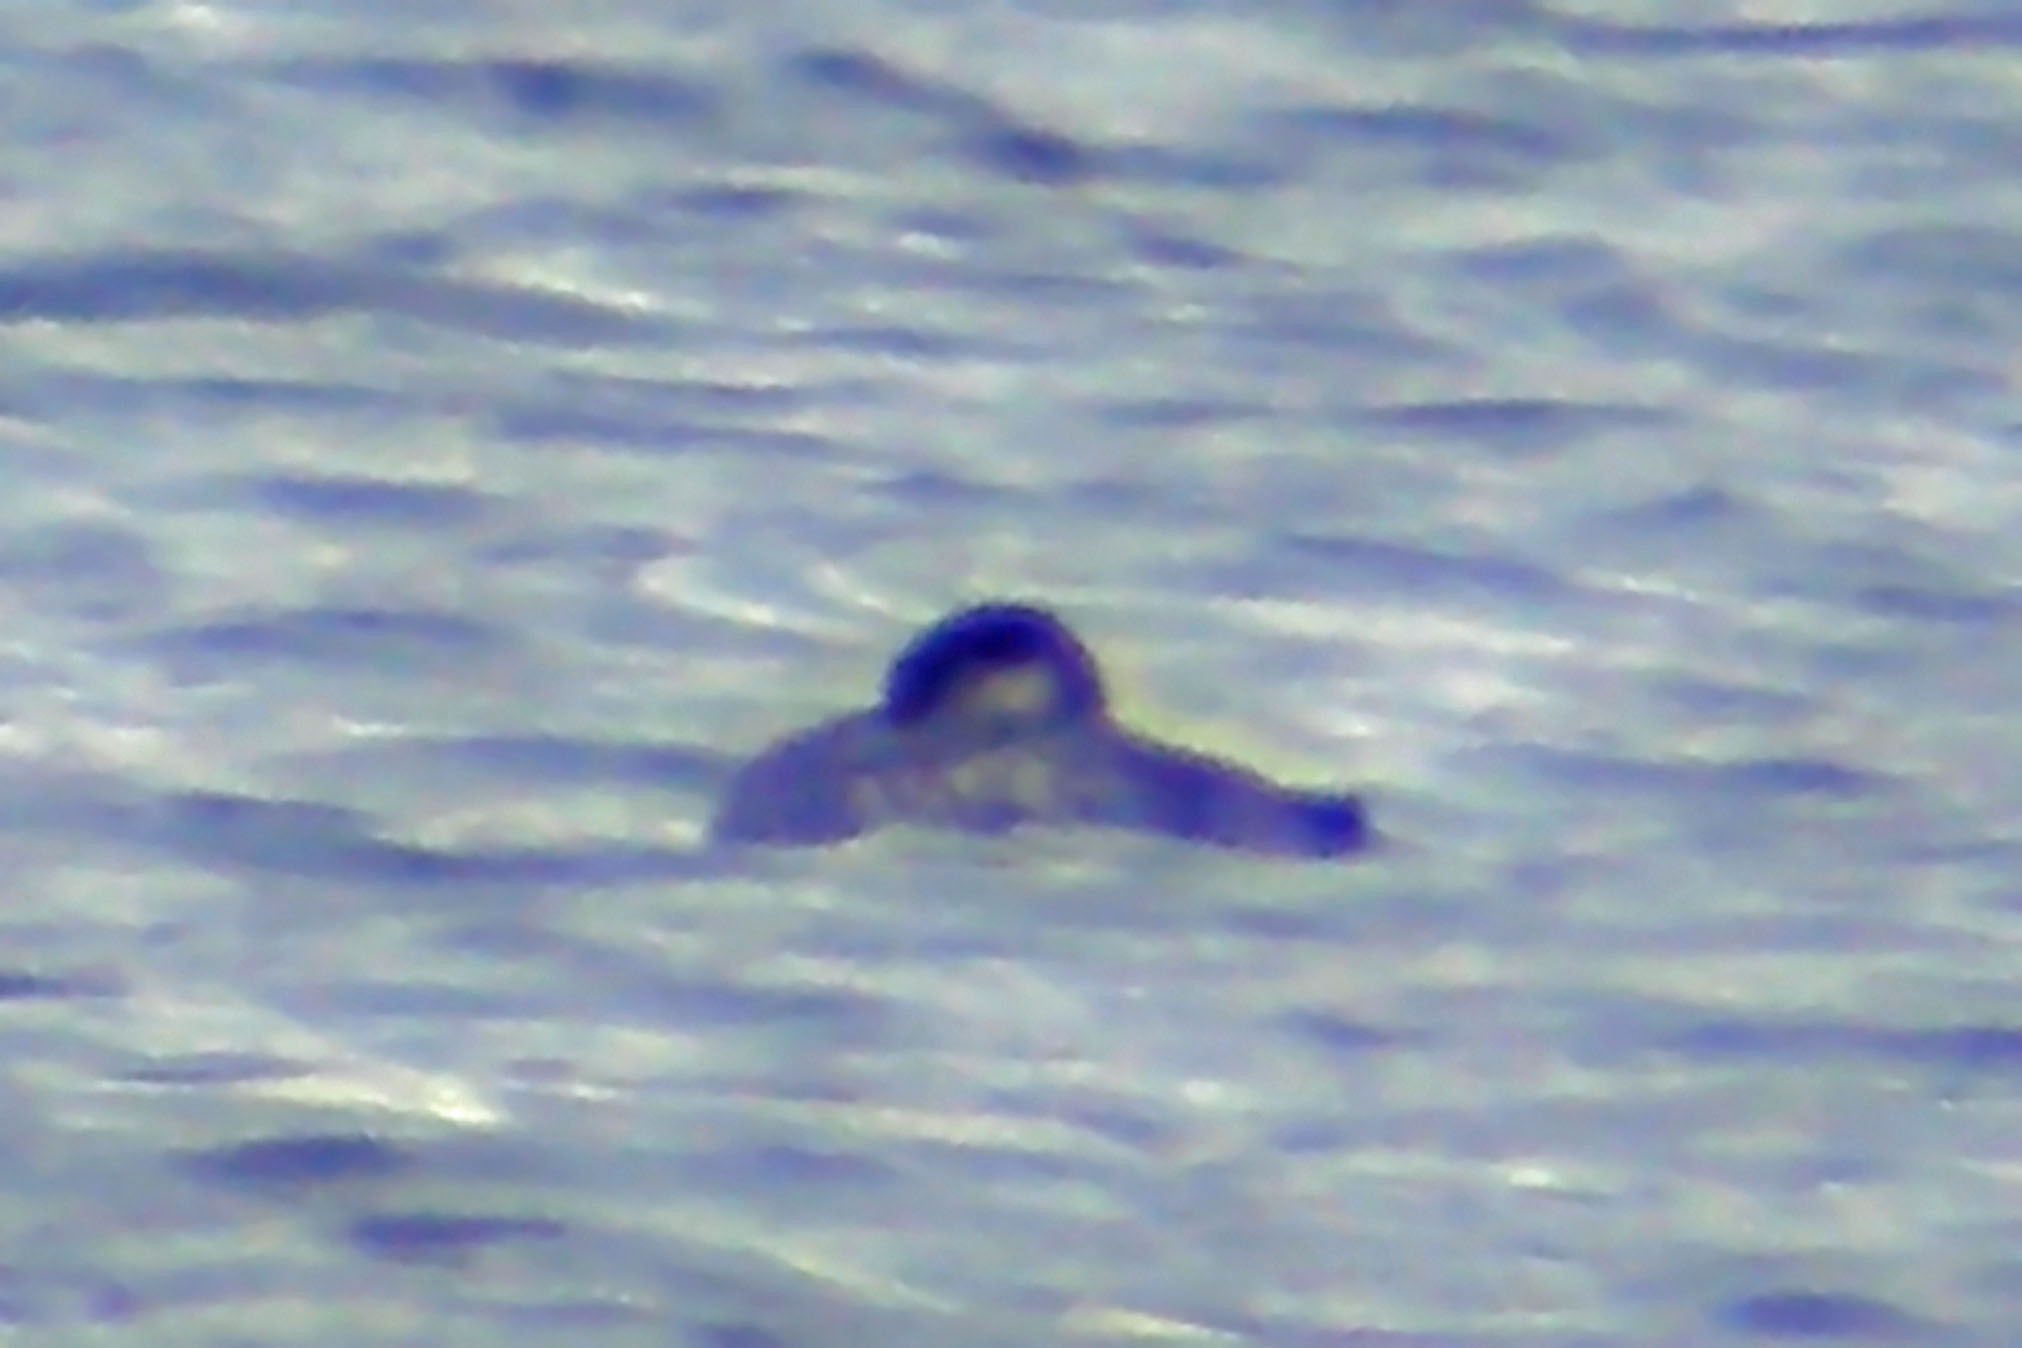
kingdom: Animalia
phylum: Chordata
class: Aves
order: Podicipediformes
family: Podicipedidae
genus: Podiceps
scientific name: Podiceps grisegena
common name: Red-necked grebe
